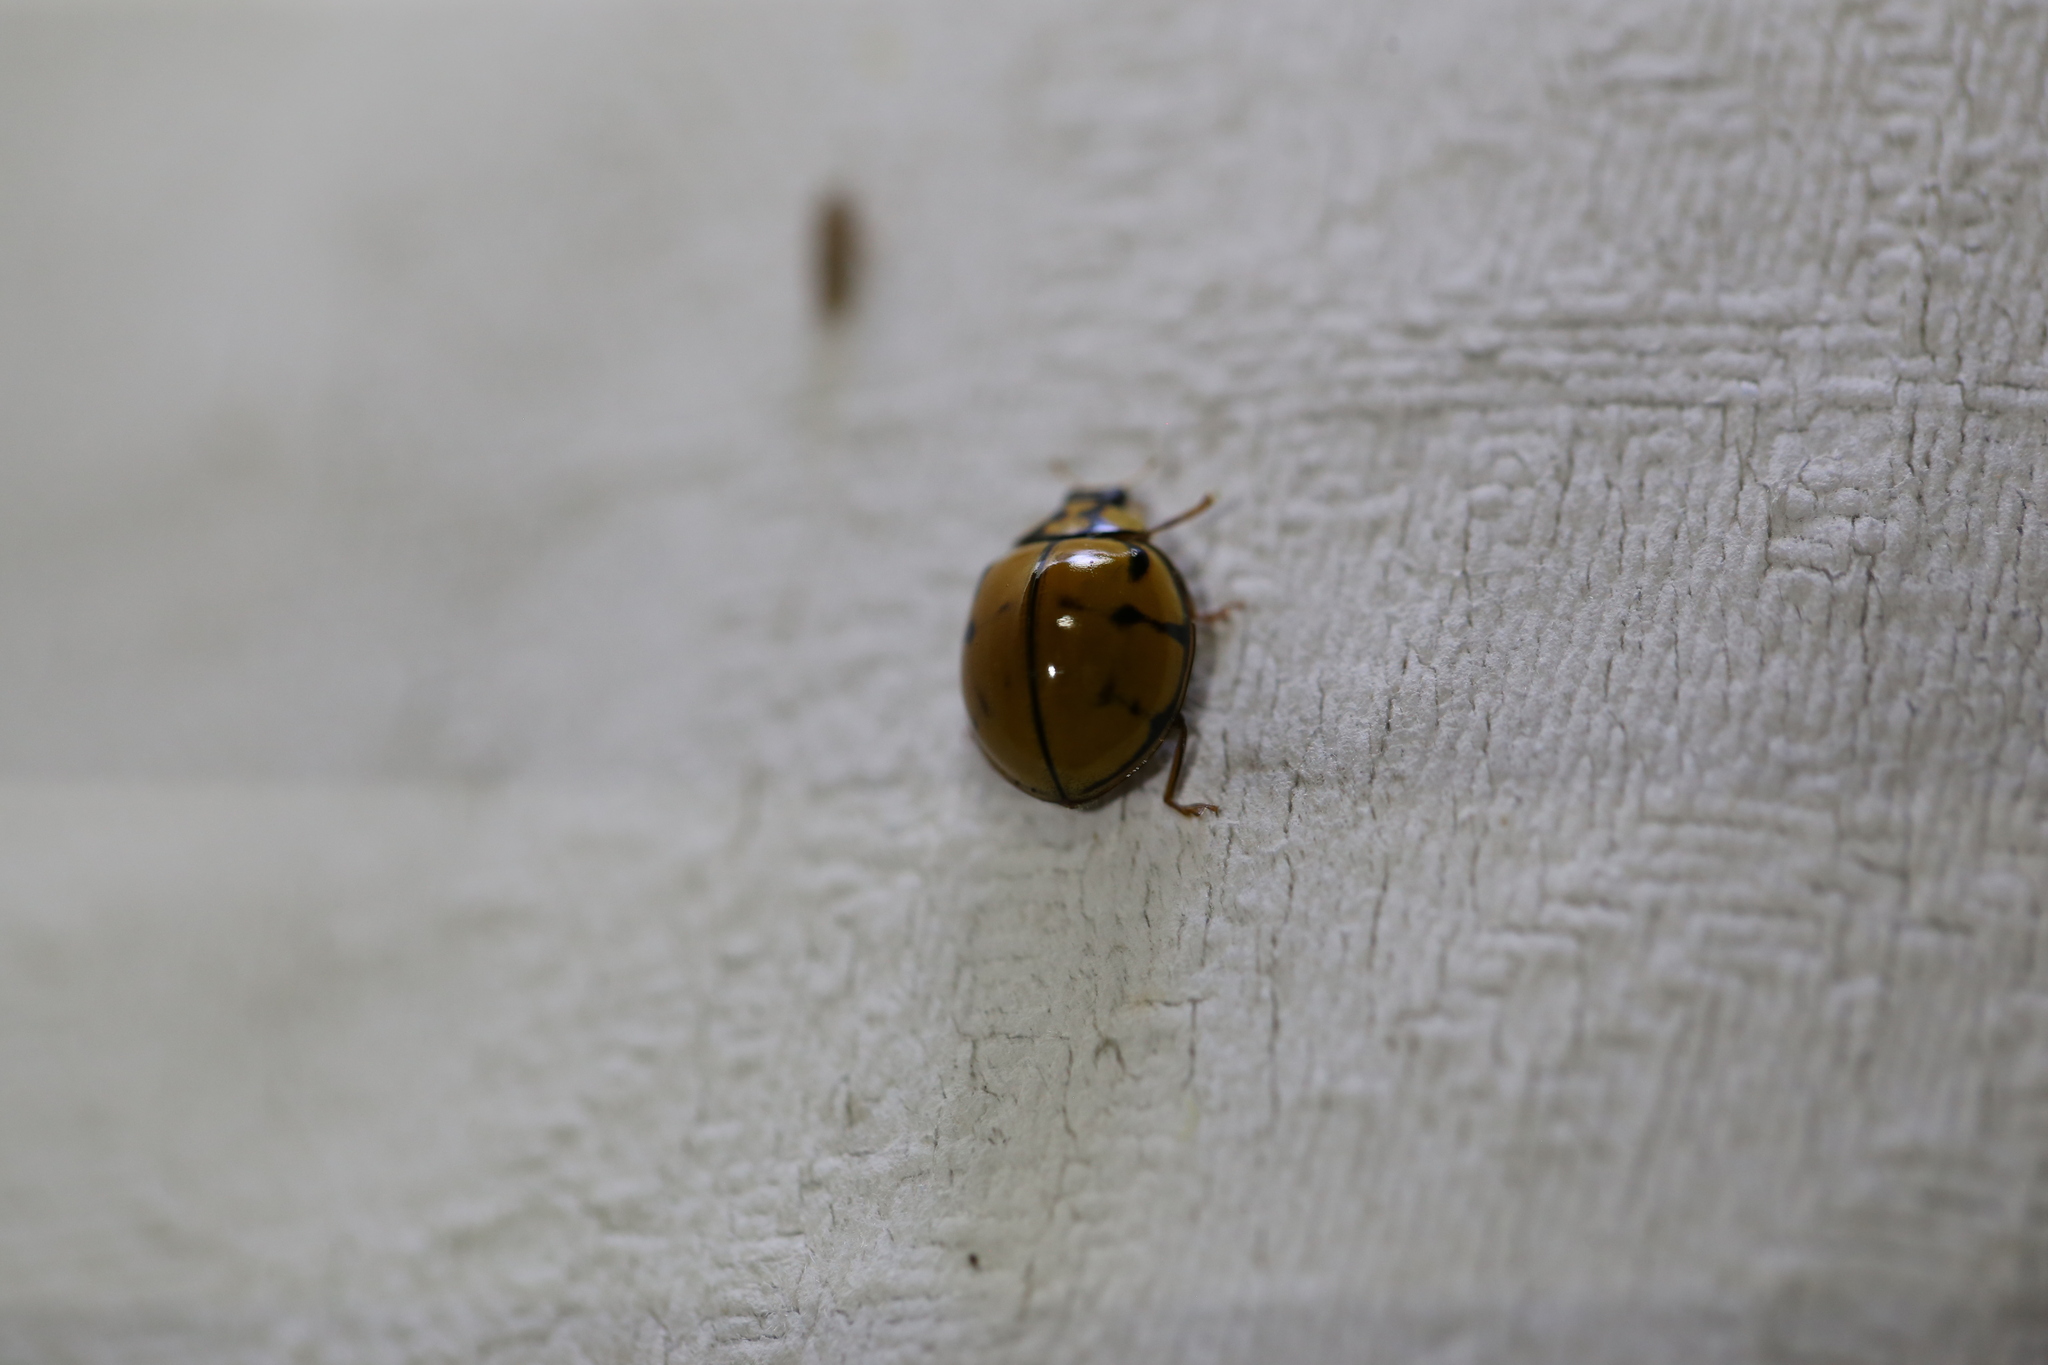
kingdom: Animalia
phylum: Arthropoda
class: Insecta
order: Coleoptera
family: Coccinellidae
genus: Harmonia
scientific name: Harmonia
